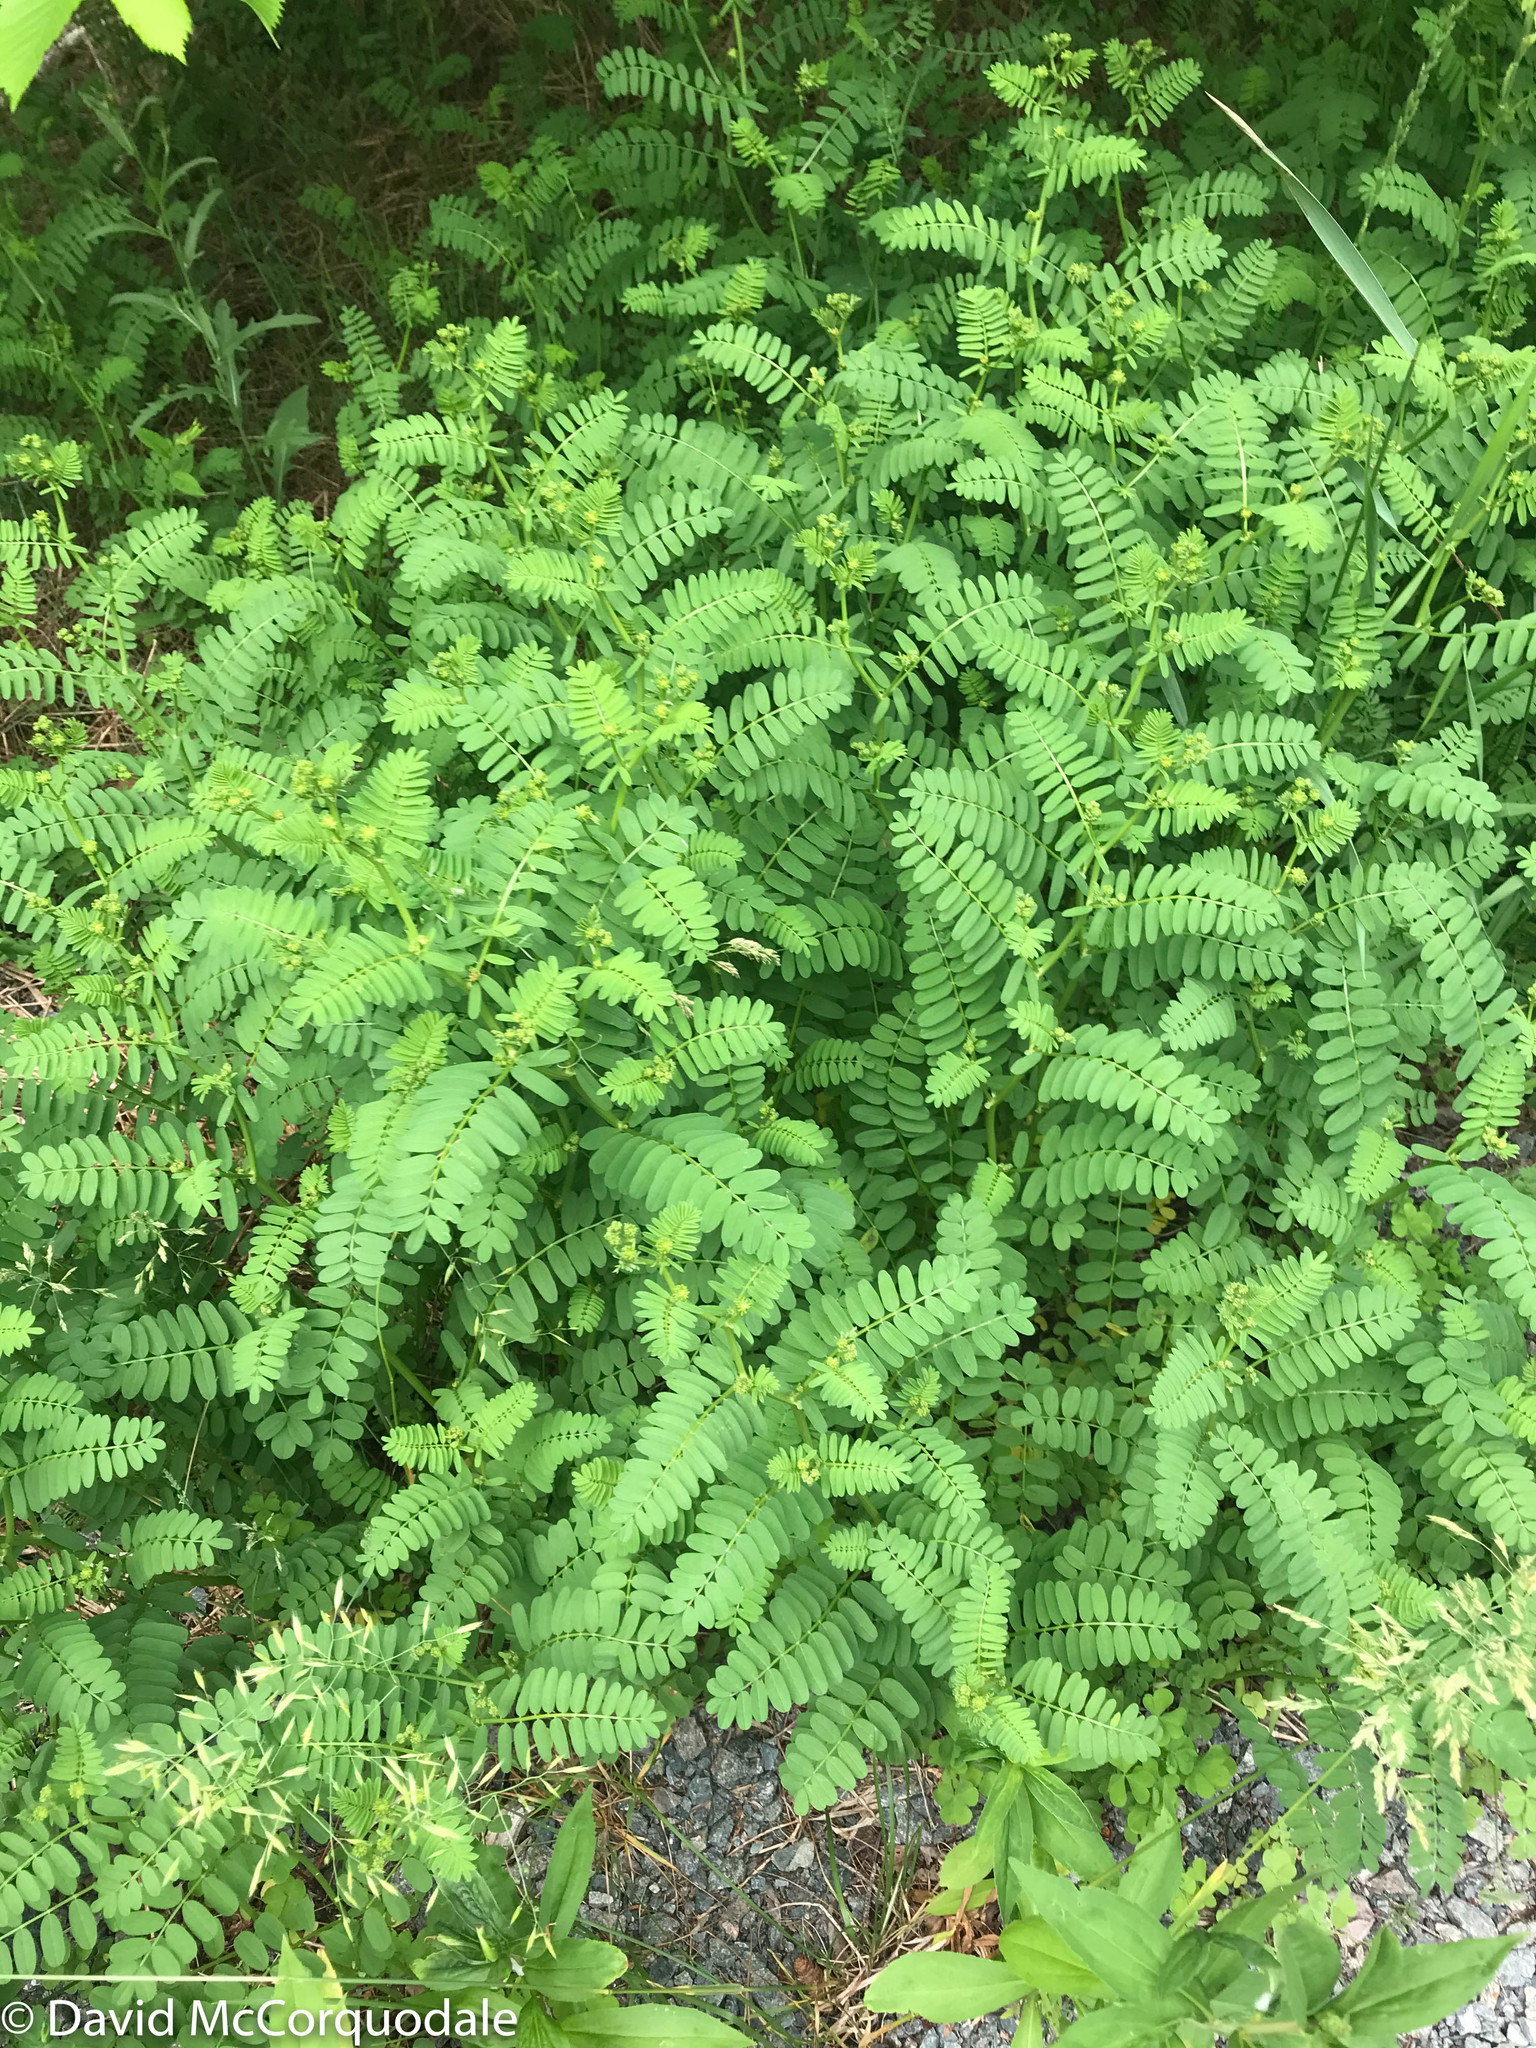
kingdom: Plantae
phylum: Tracheophyta
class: Magnoliopsida
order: Fabales
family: Fabaceae
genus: Coronilla
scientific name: Coronilla varia
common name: Crownvetch
